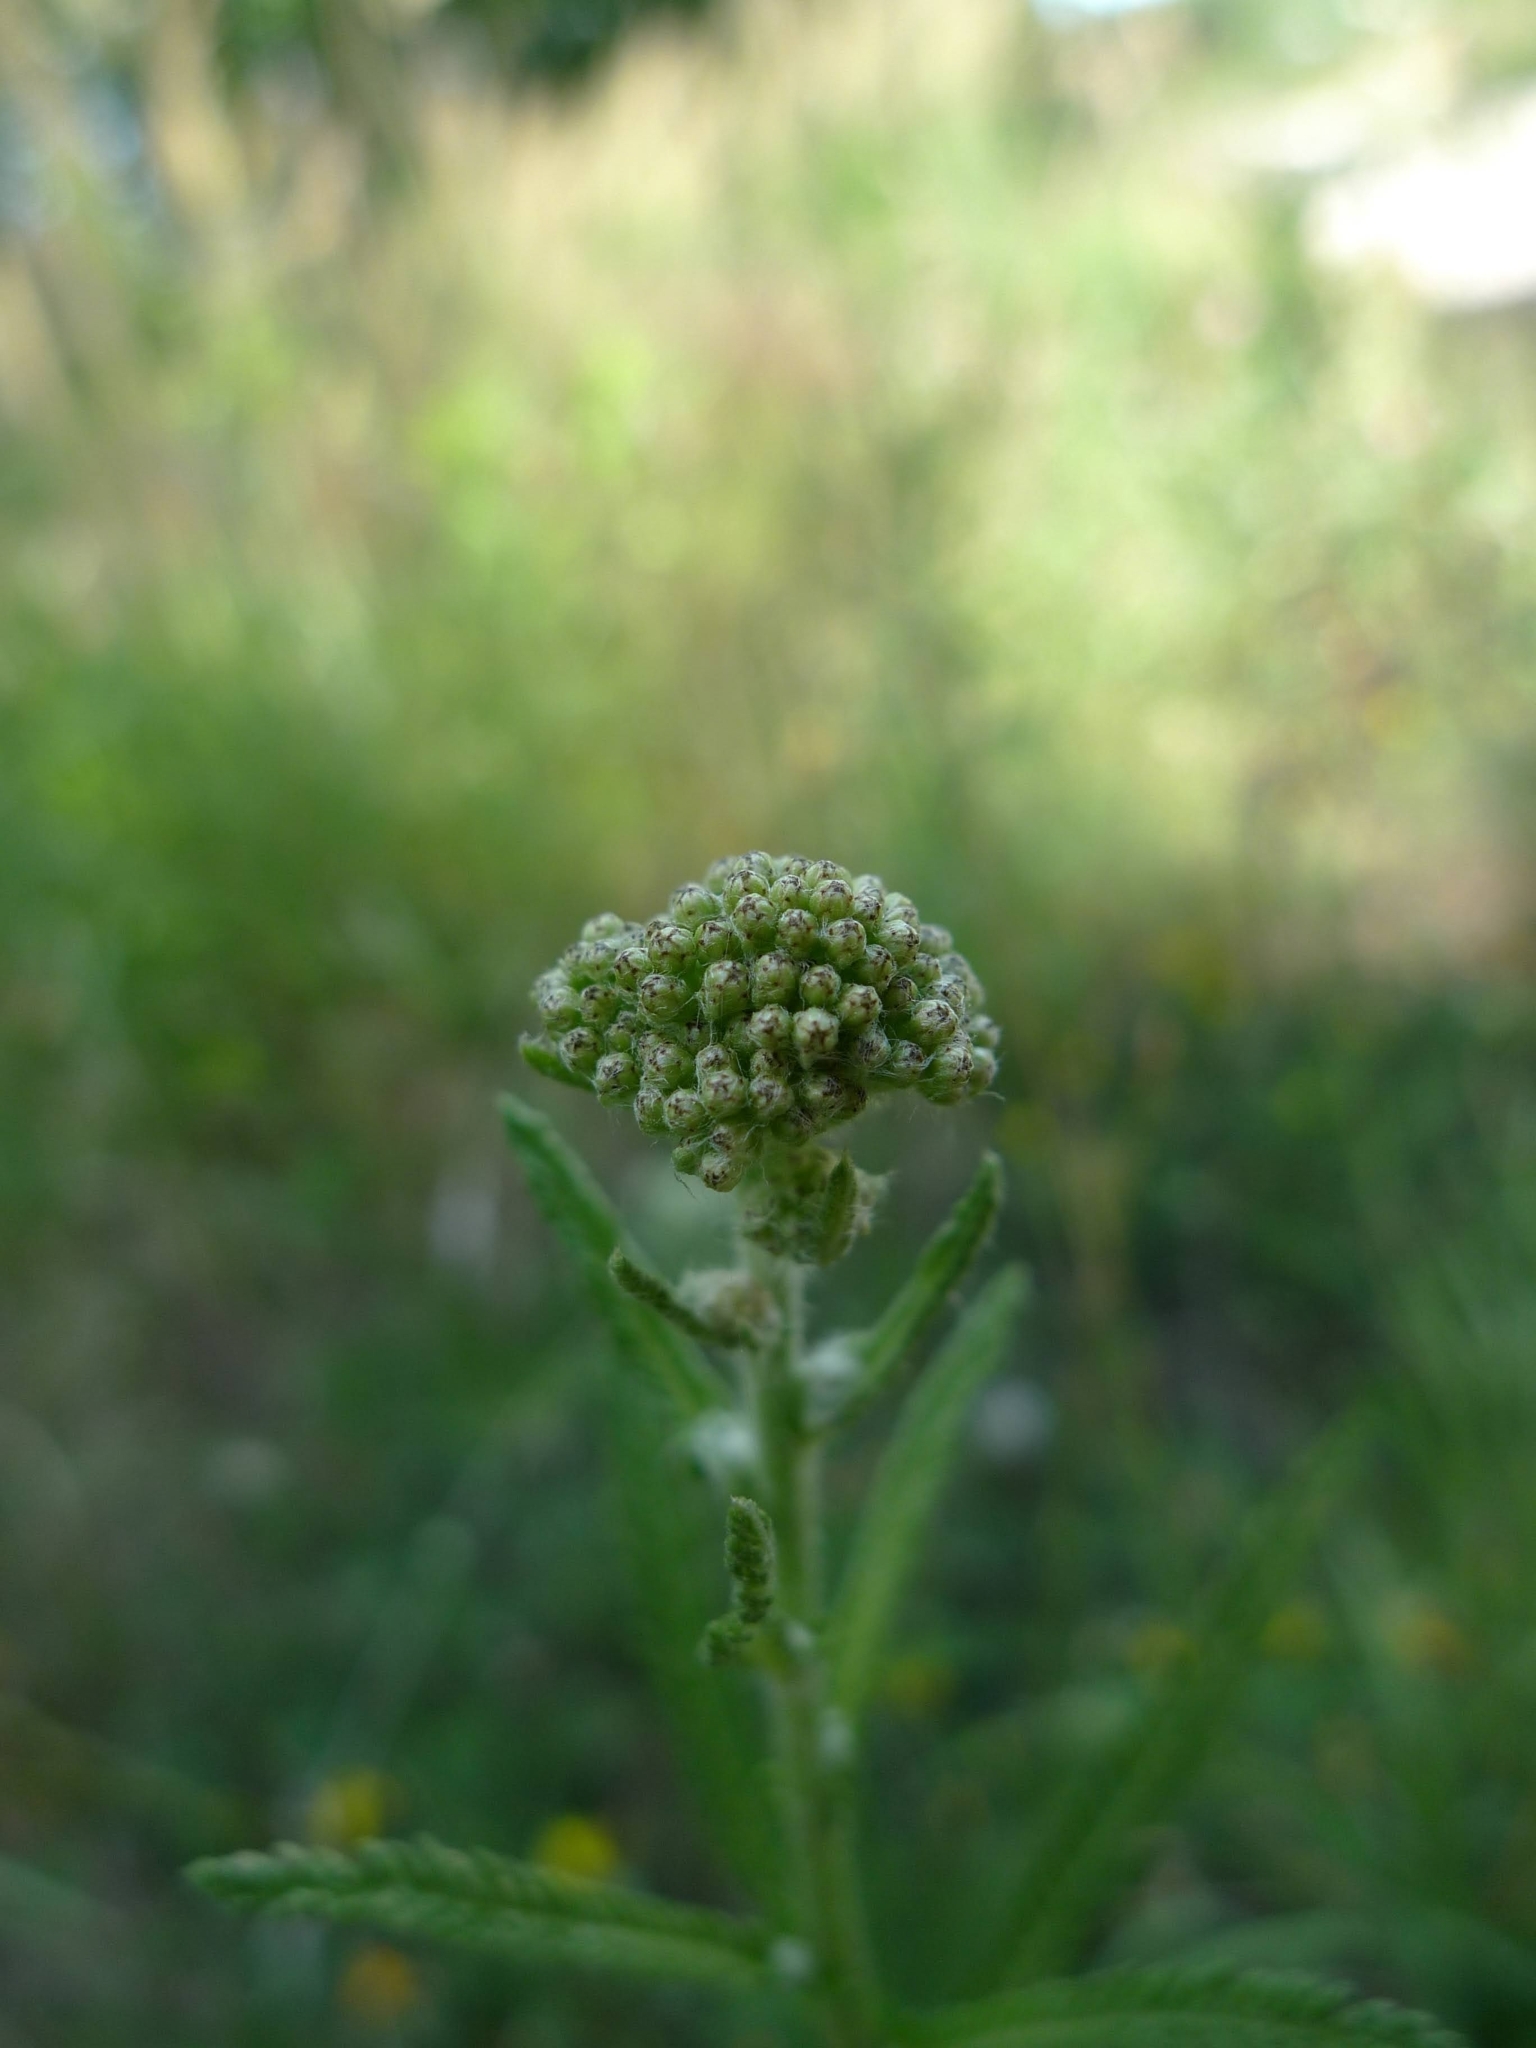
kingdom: Plantae
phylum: Tracheophyta
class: Magnoliopsida
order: Asterales
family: Asteraceae
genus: Achillea
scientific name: Achillea millefolium
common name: Yarrow
